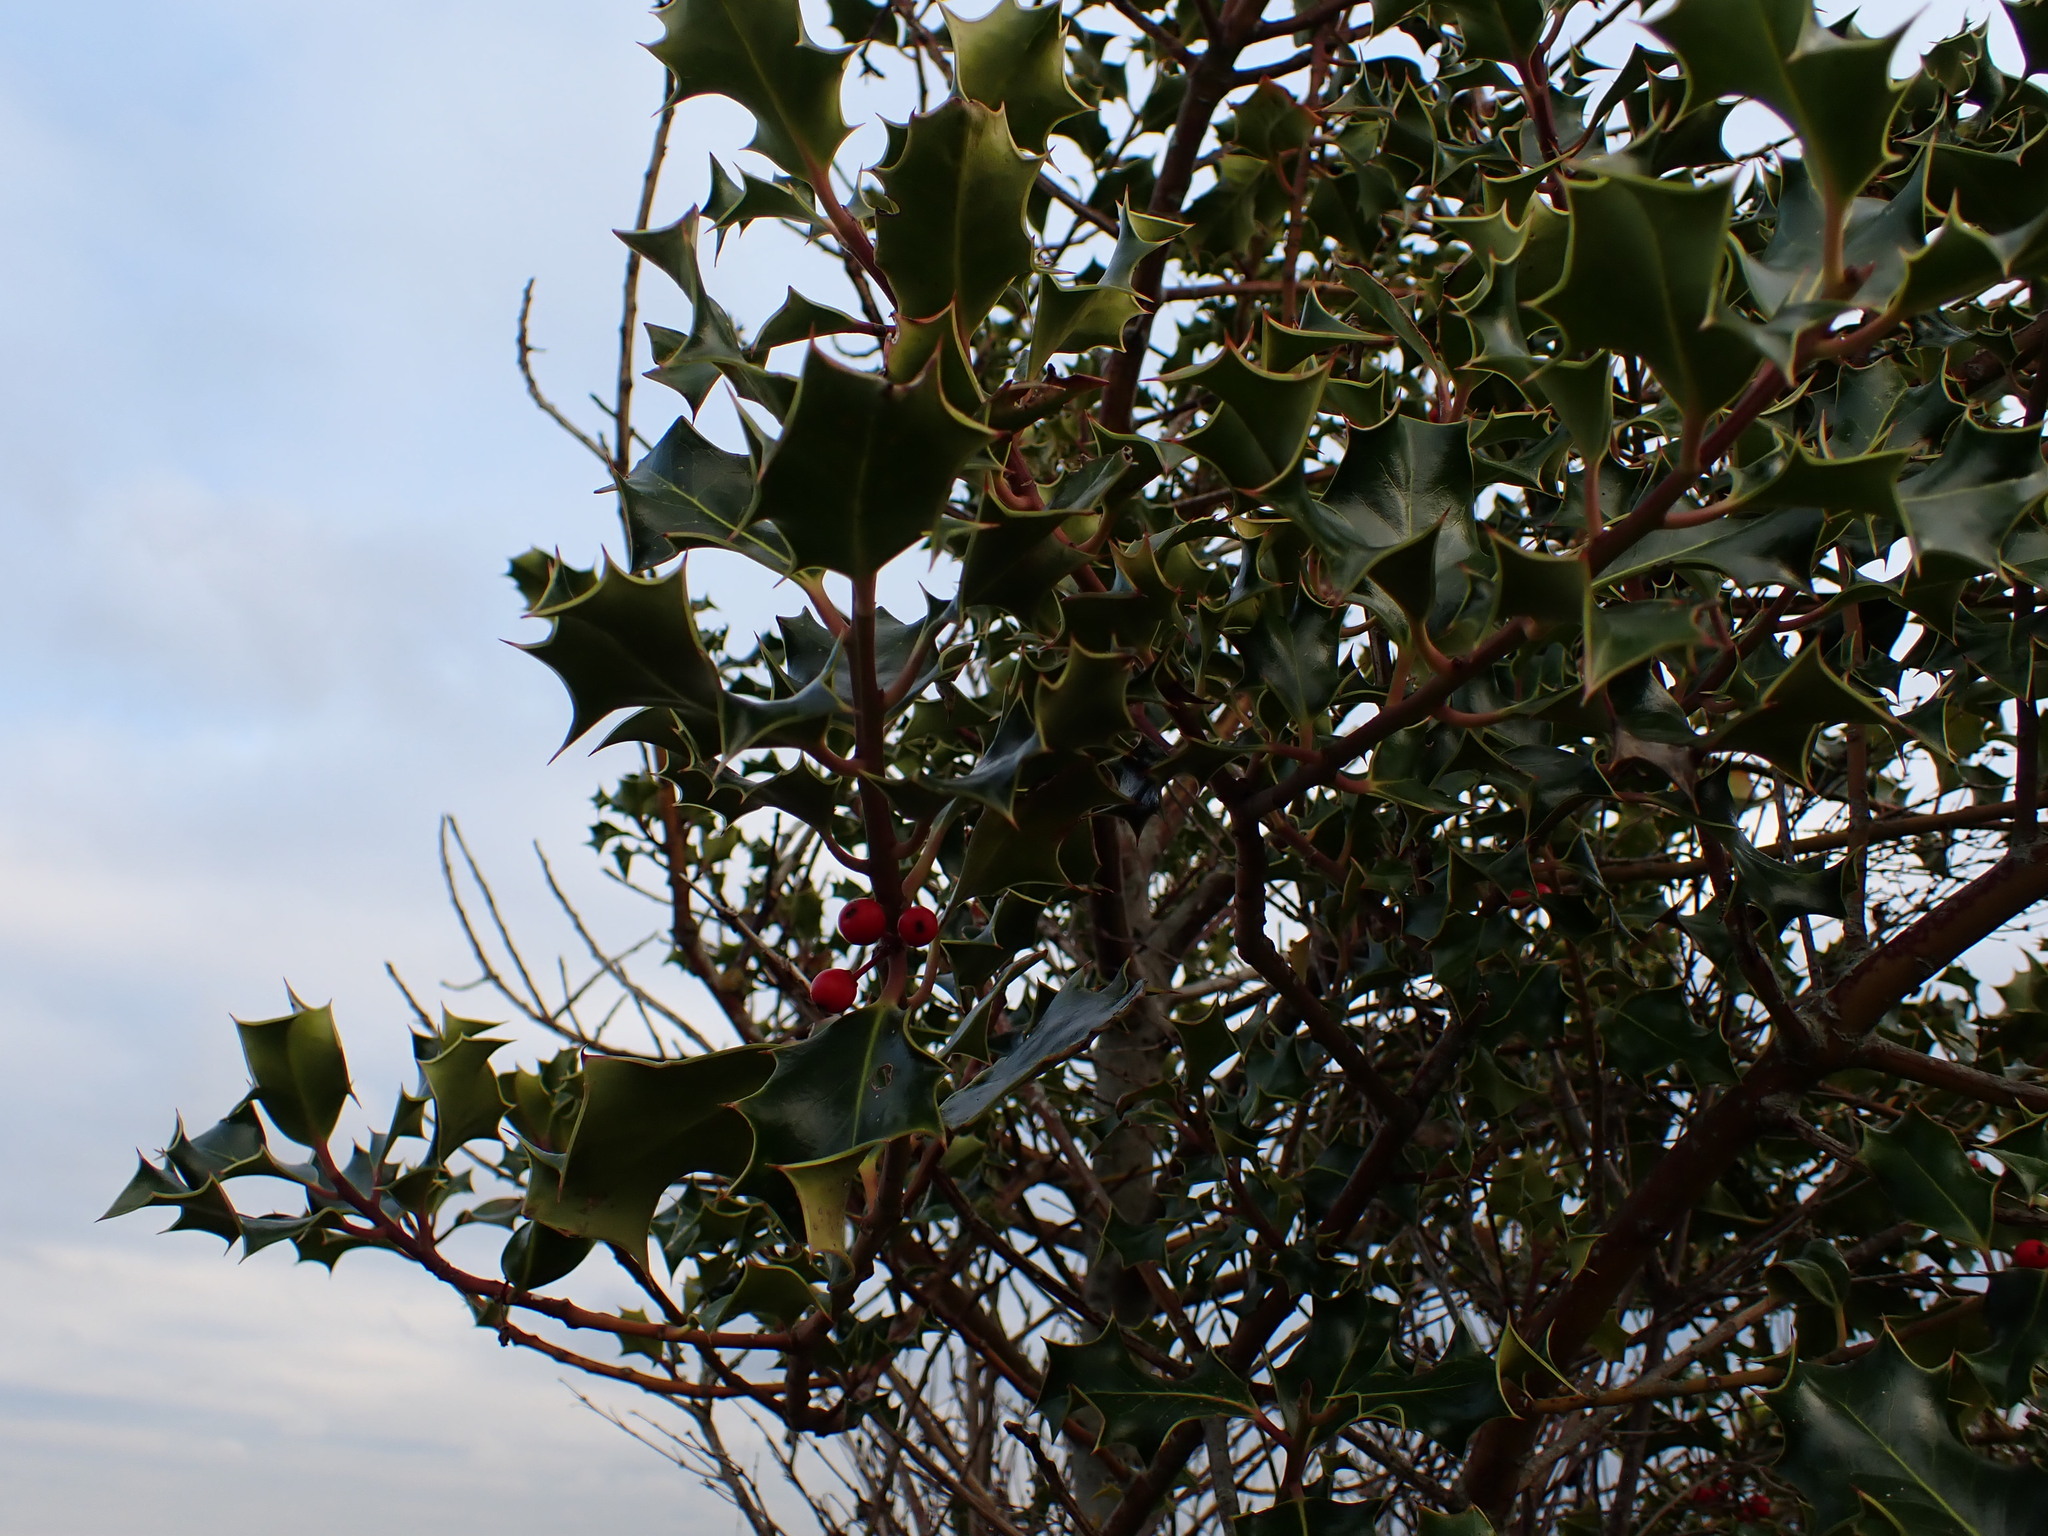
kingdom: Plantae
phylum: Tracheophyta
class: Magnoliopsida
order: Aquifoliales
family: Aquifoliaceae
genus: Ilex
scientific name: Ilex aquifolium
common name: English holly
